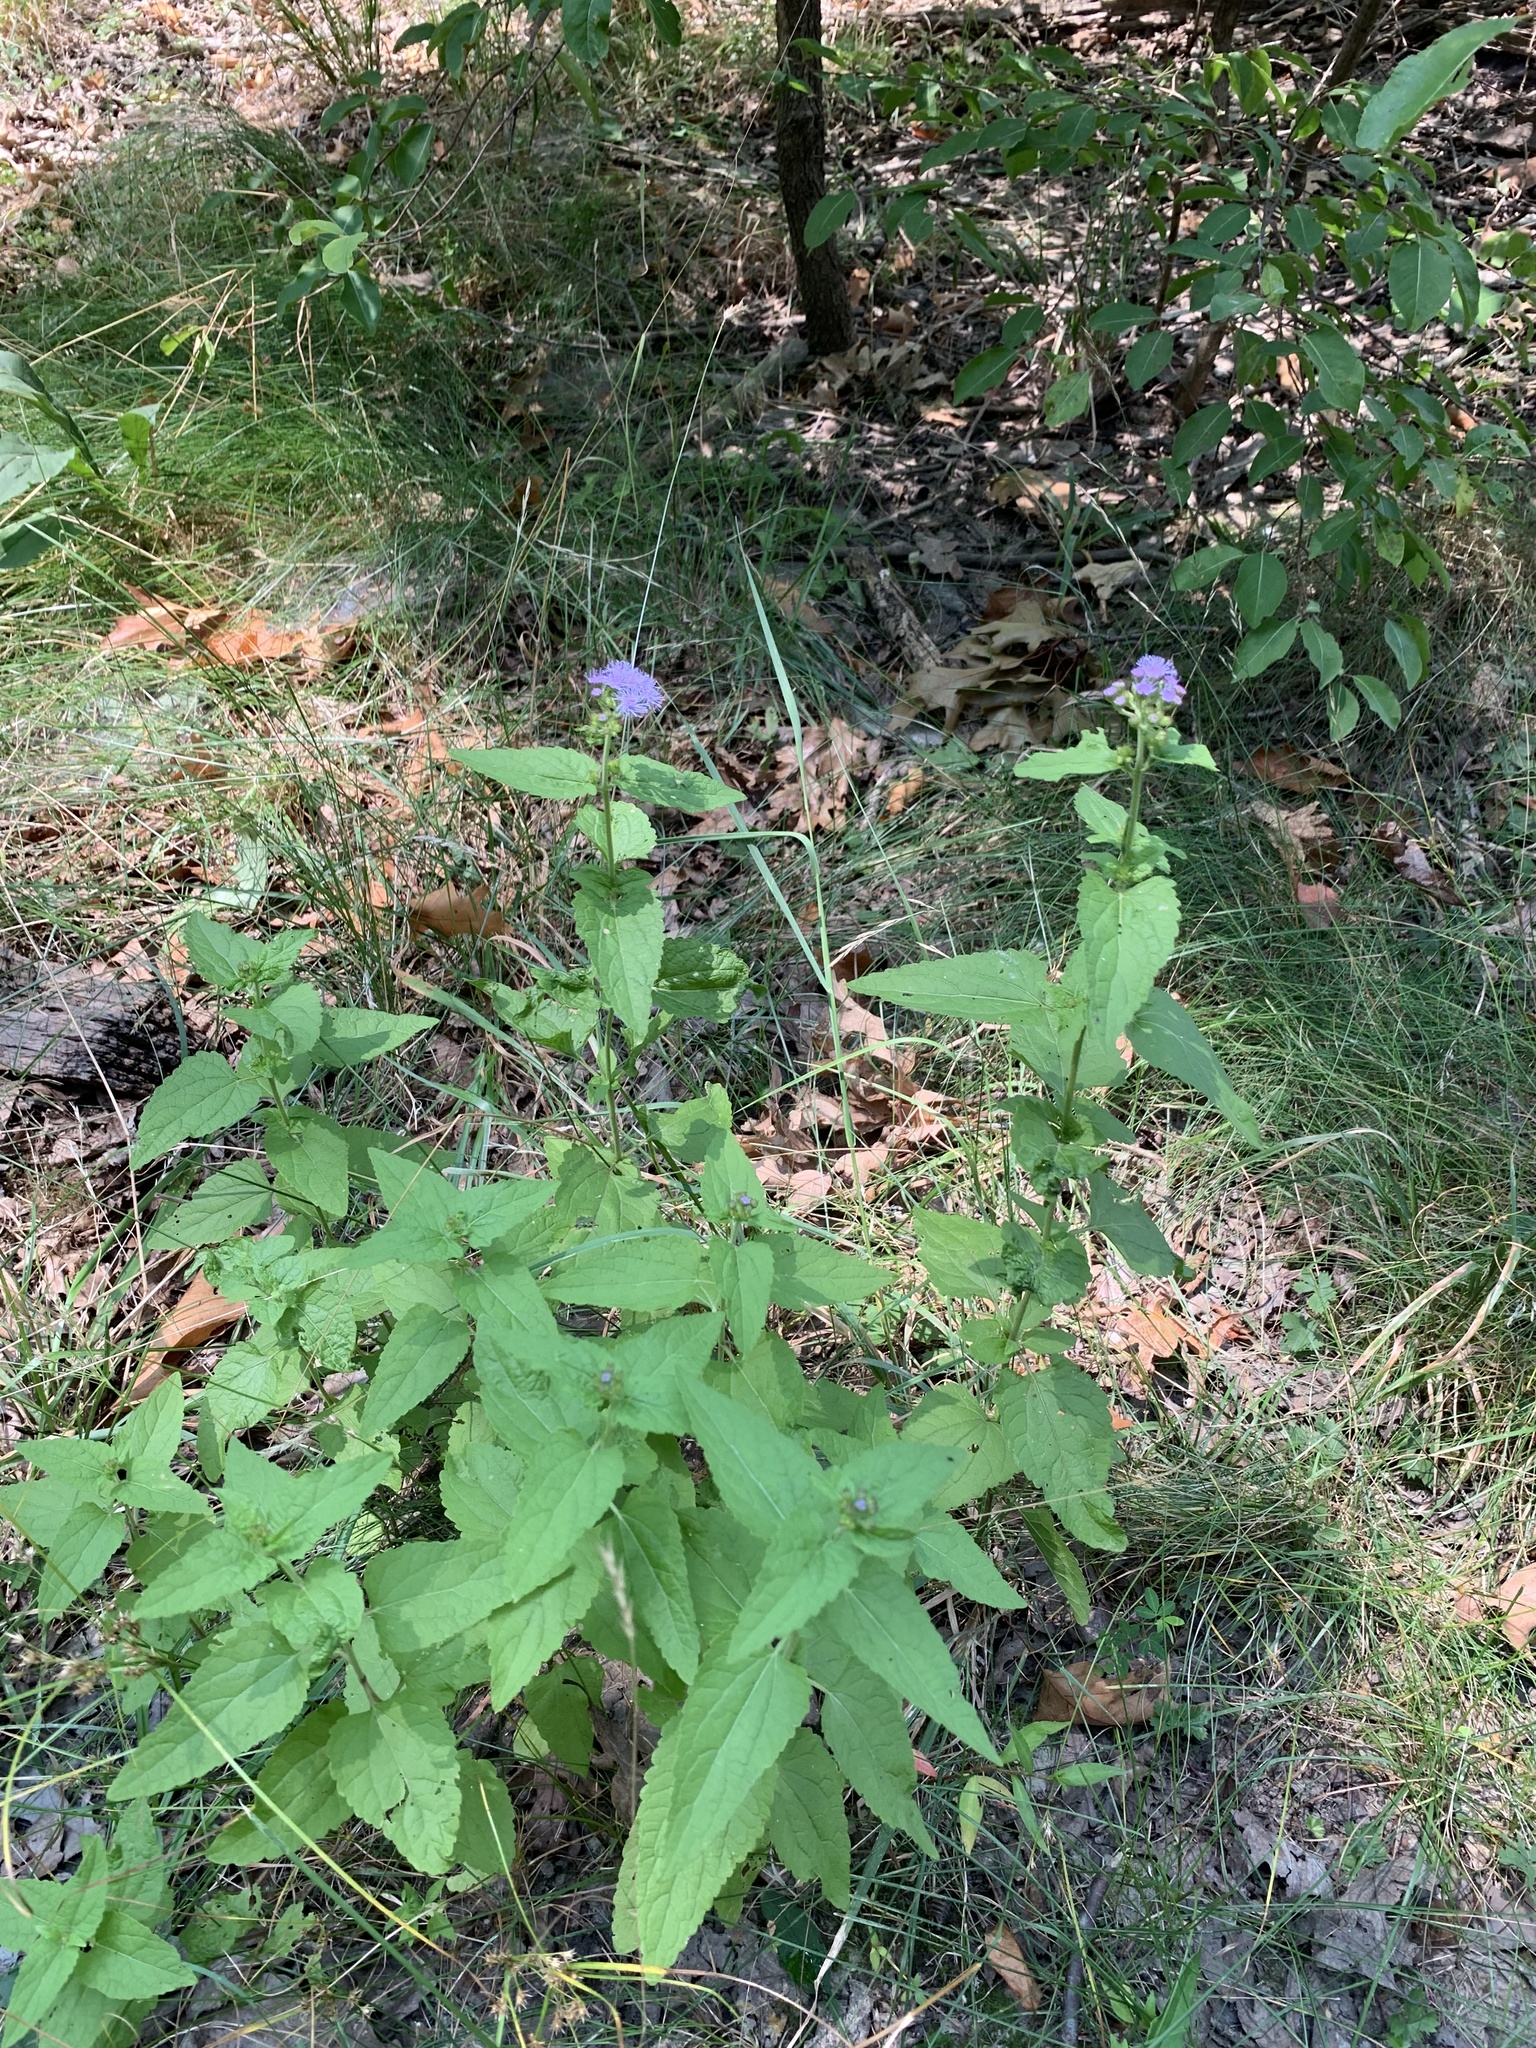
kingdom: Plantae
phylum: Tracheophyta
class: Magnoliopsida
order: Asterales
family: Asteraceae
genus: Conoclinium
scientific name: Conoclinium coelestinum
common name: Blue mistflower
